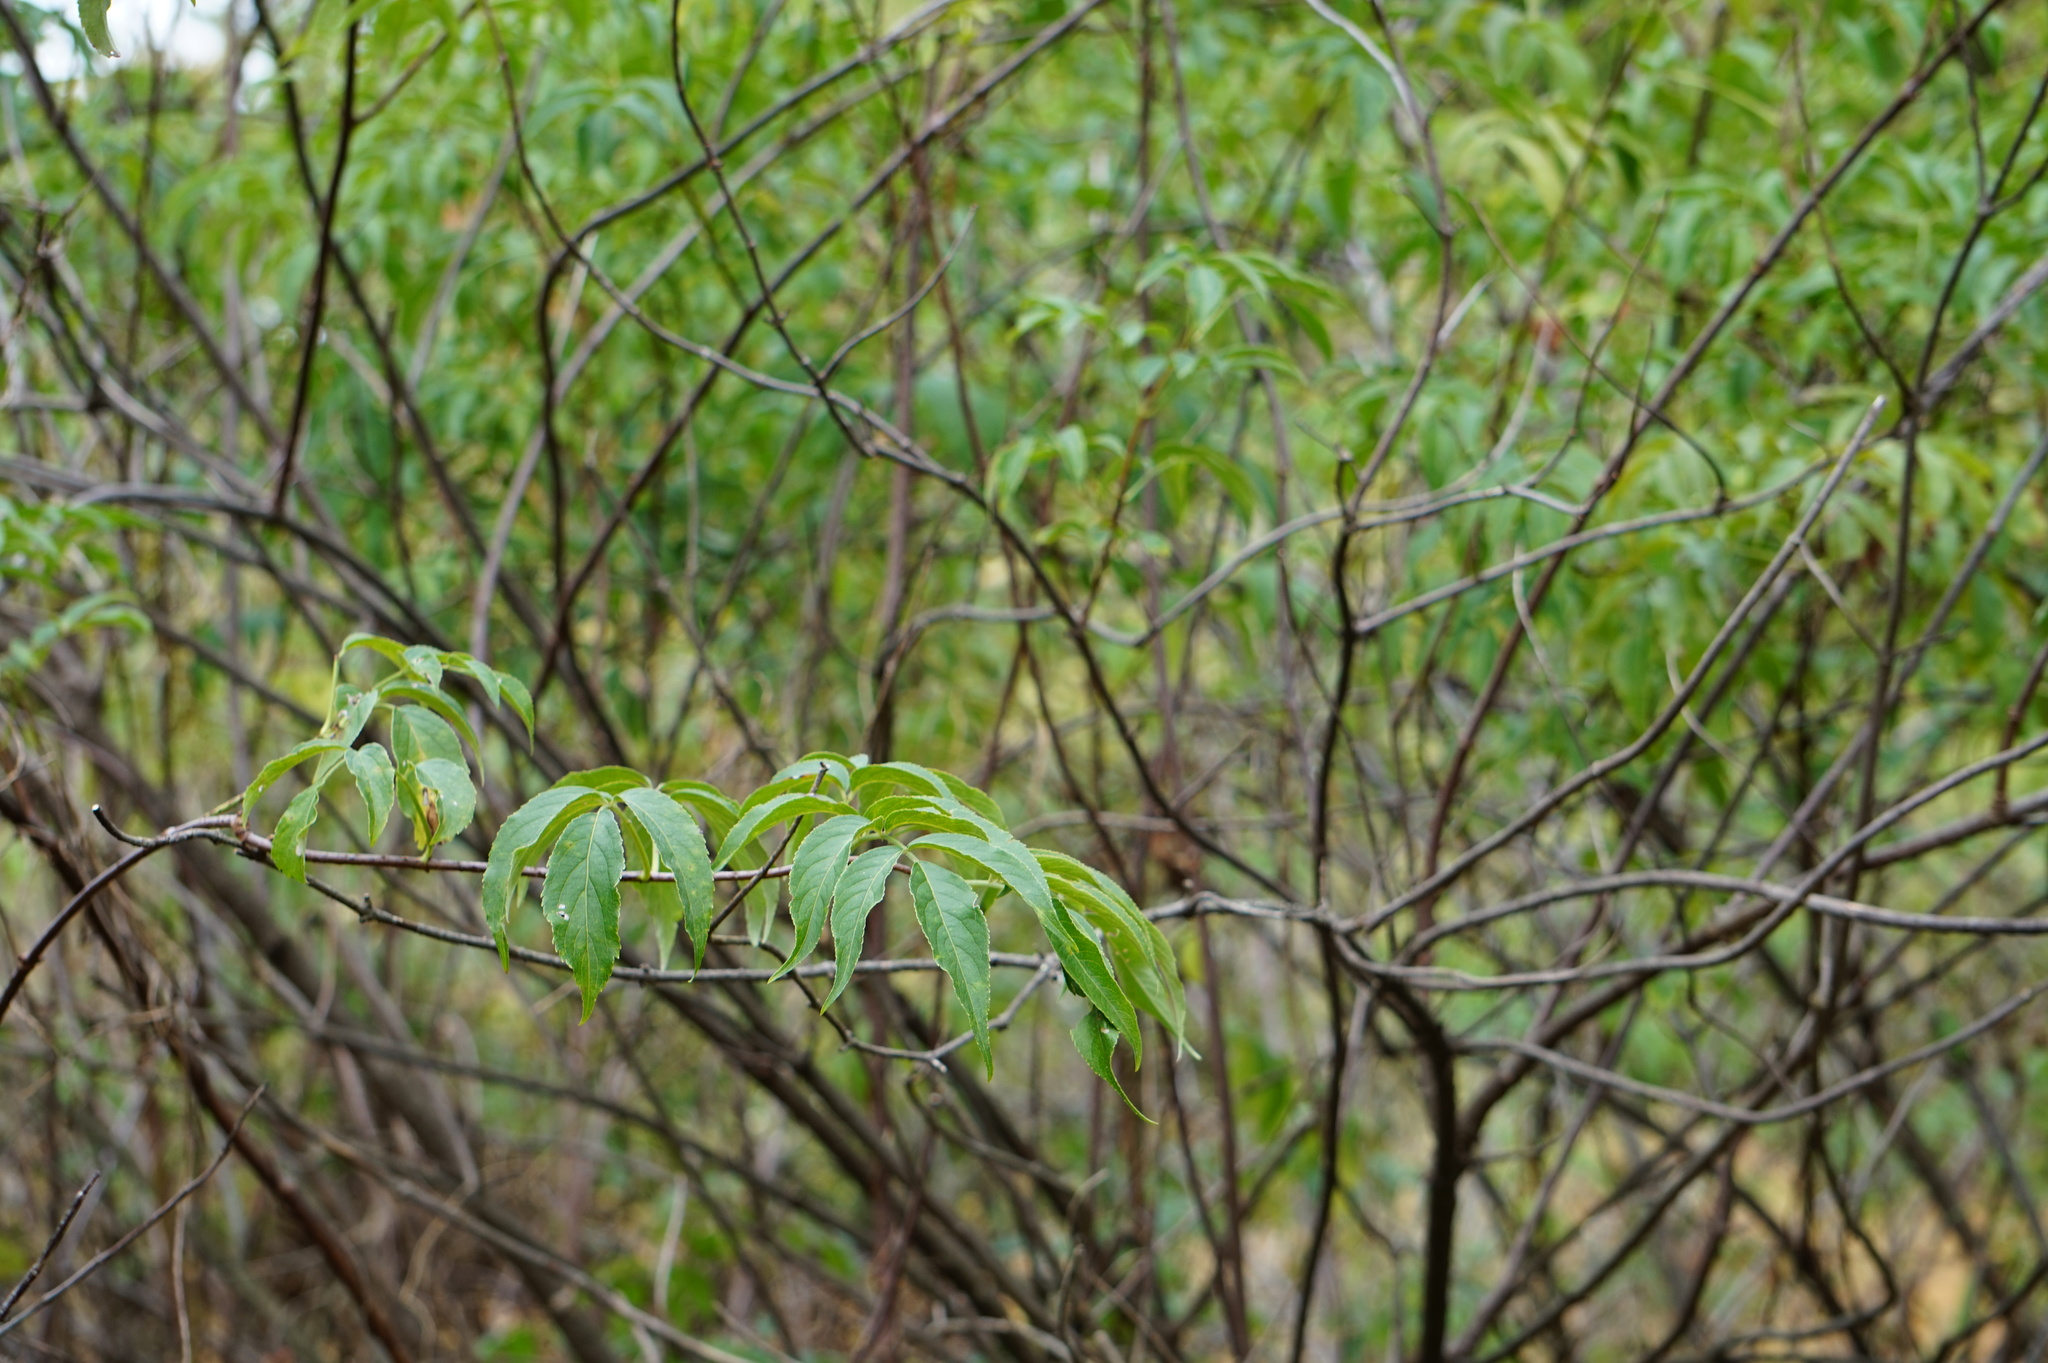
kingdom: Plantae
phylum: Tracheophyta
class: Magnoliopsida
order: Dipsacales
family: Viburnaceae
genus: Sambucus
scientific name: Sambucus canadensis
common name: American elder
